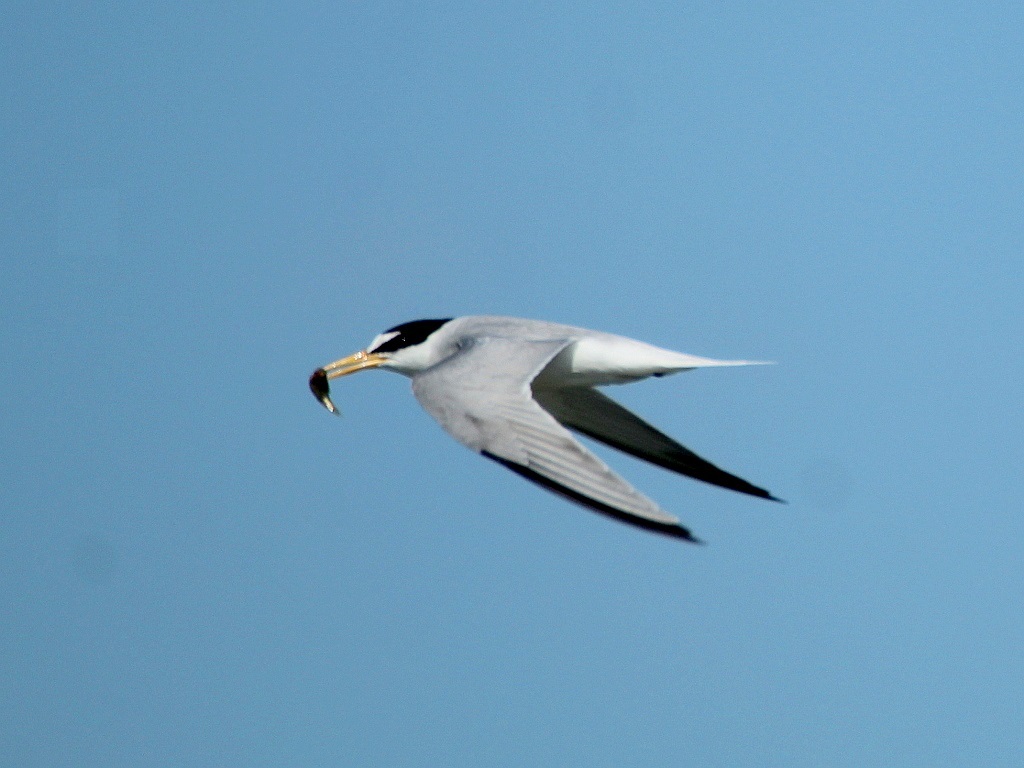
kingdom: Animalia
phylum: Chordata
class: Aves
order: Charadriiformes
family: Laridae
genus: Sternula
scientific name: Sternula albifrons
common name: Little tern
